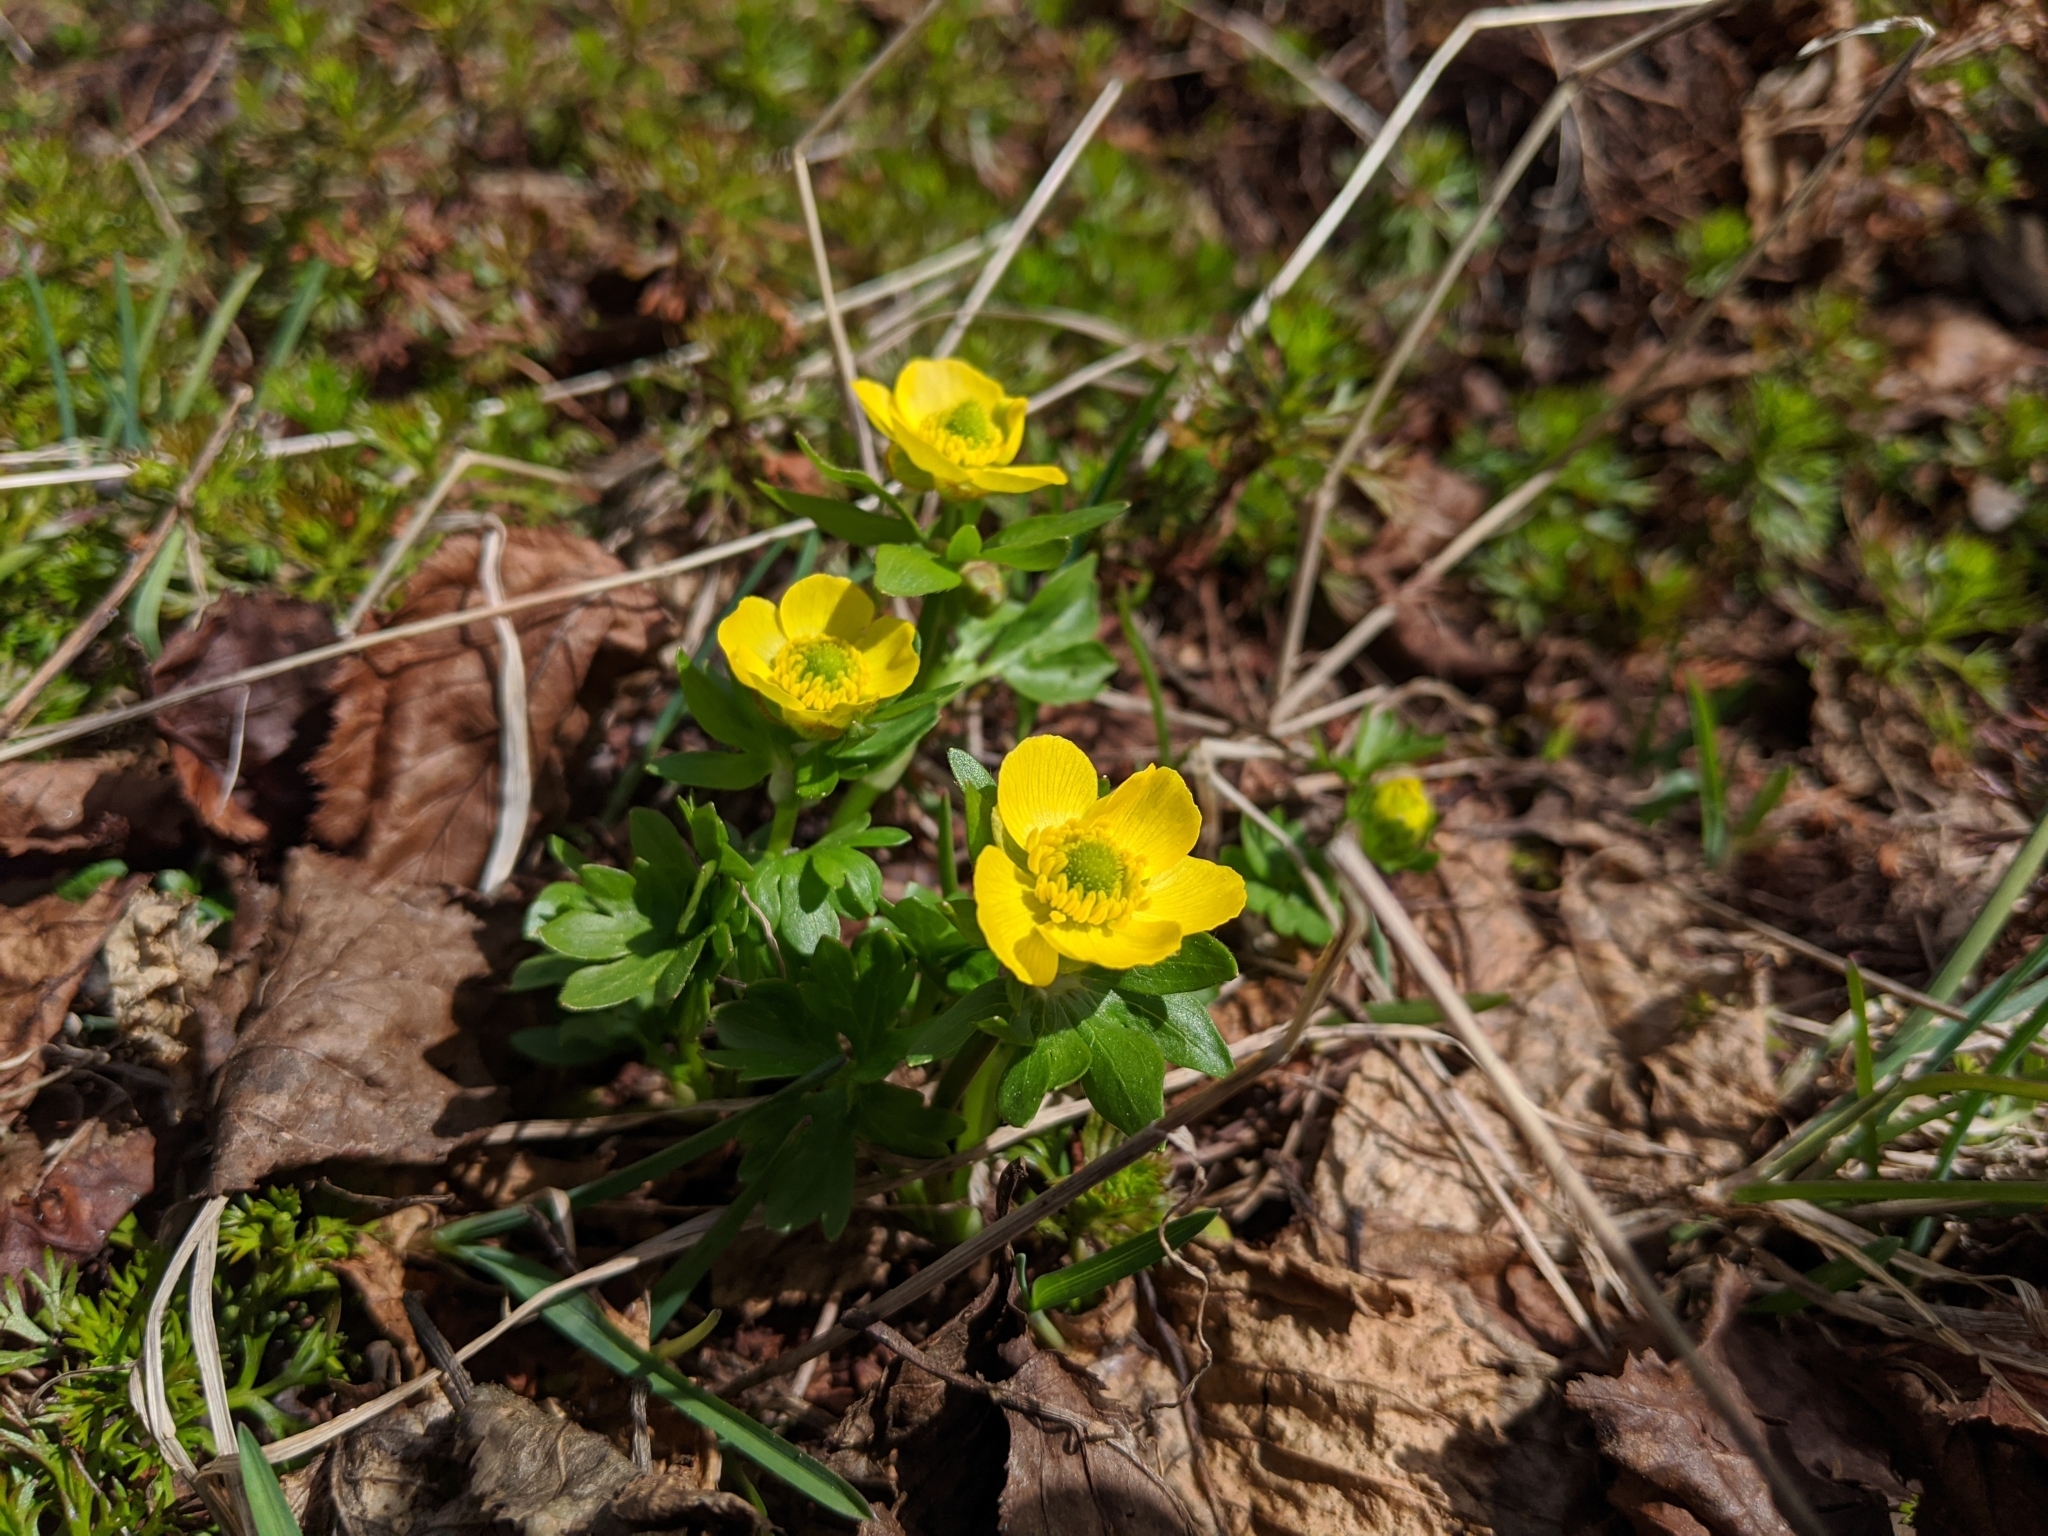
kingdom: Plantae
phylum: Tracheophyta
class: Magnoliopsida
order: Ranunculales
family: Ranunculaceae
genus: Ranunculus
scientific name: Ranunculus eschscholtzii
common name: Eschscholtz's buttercup
